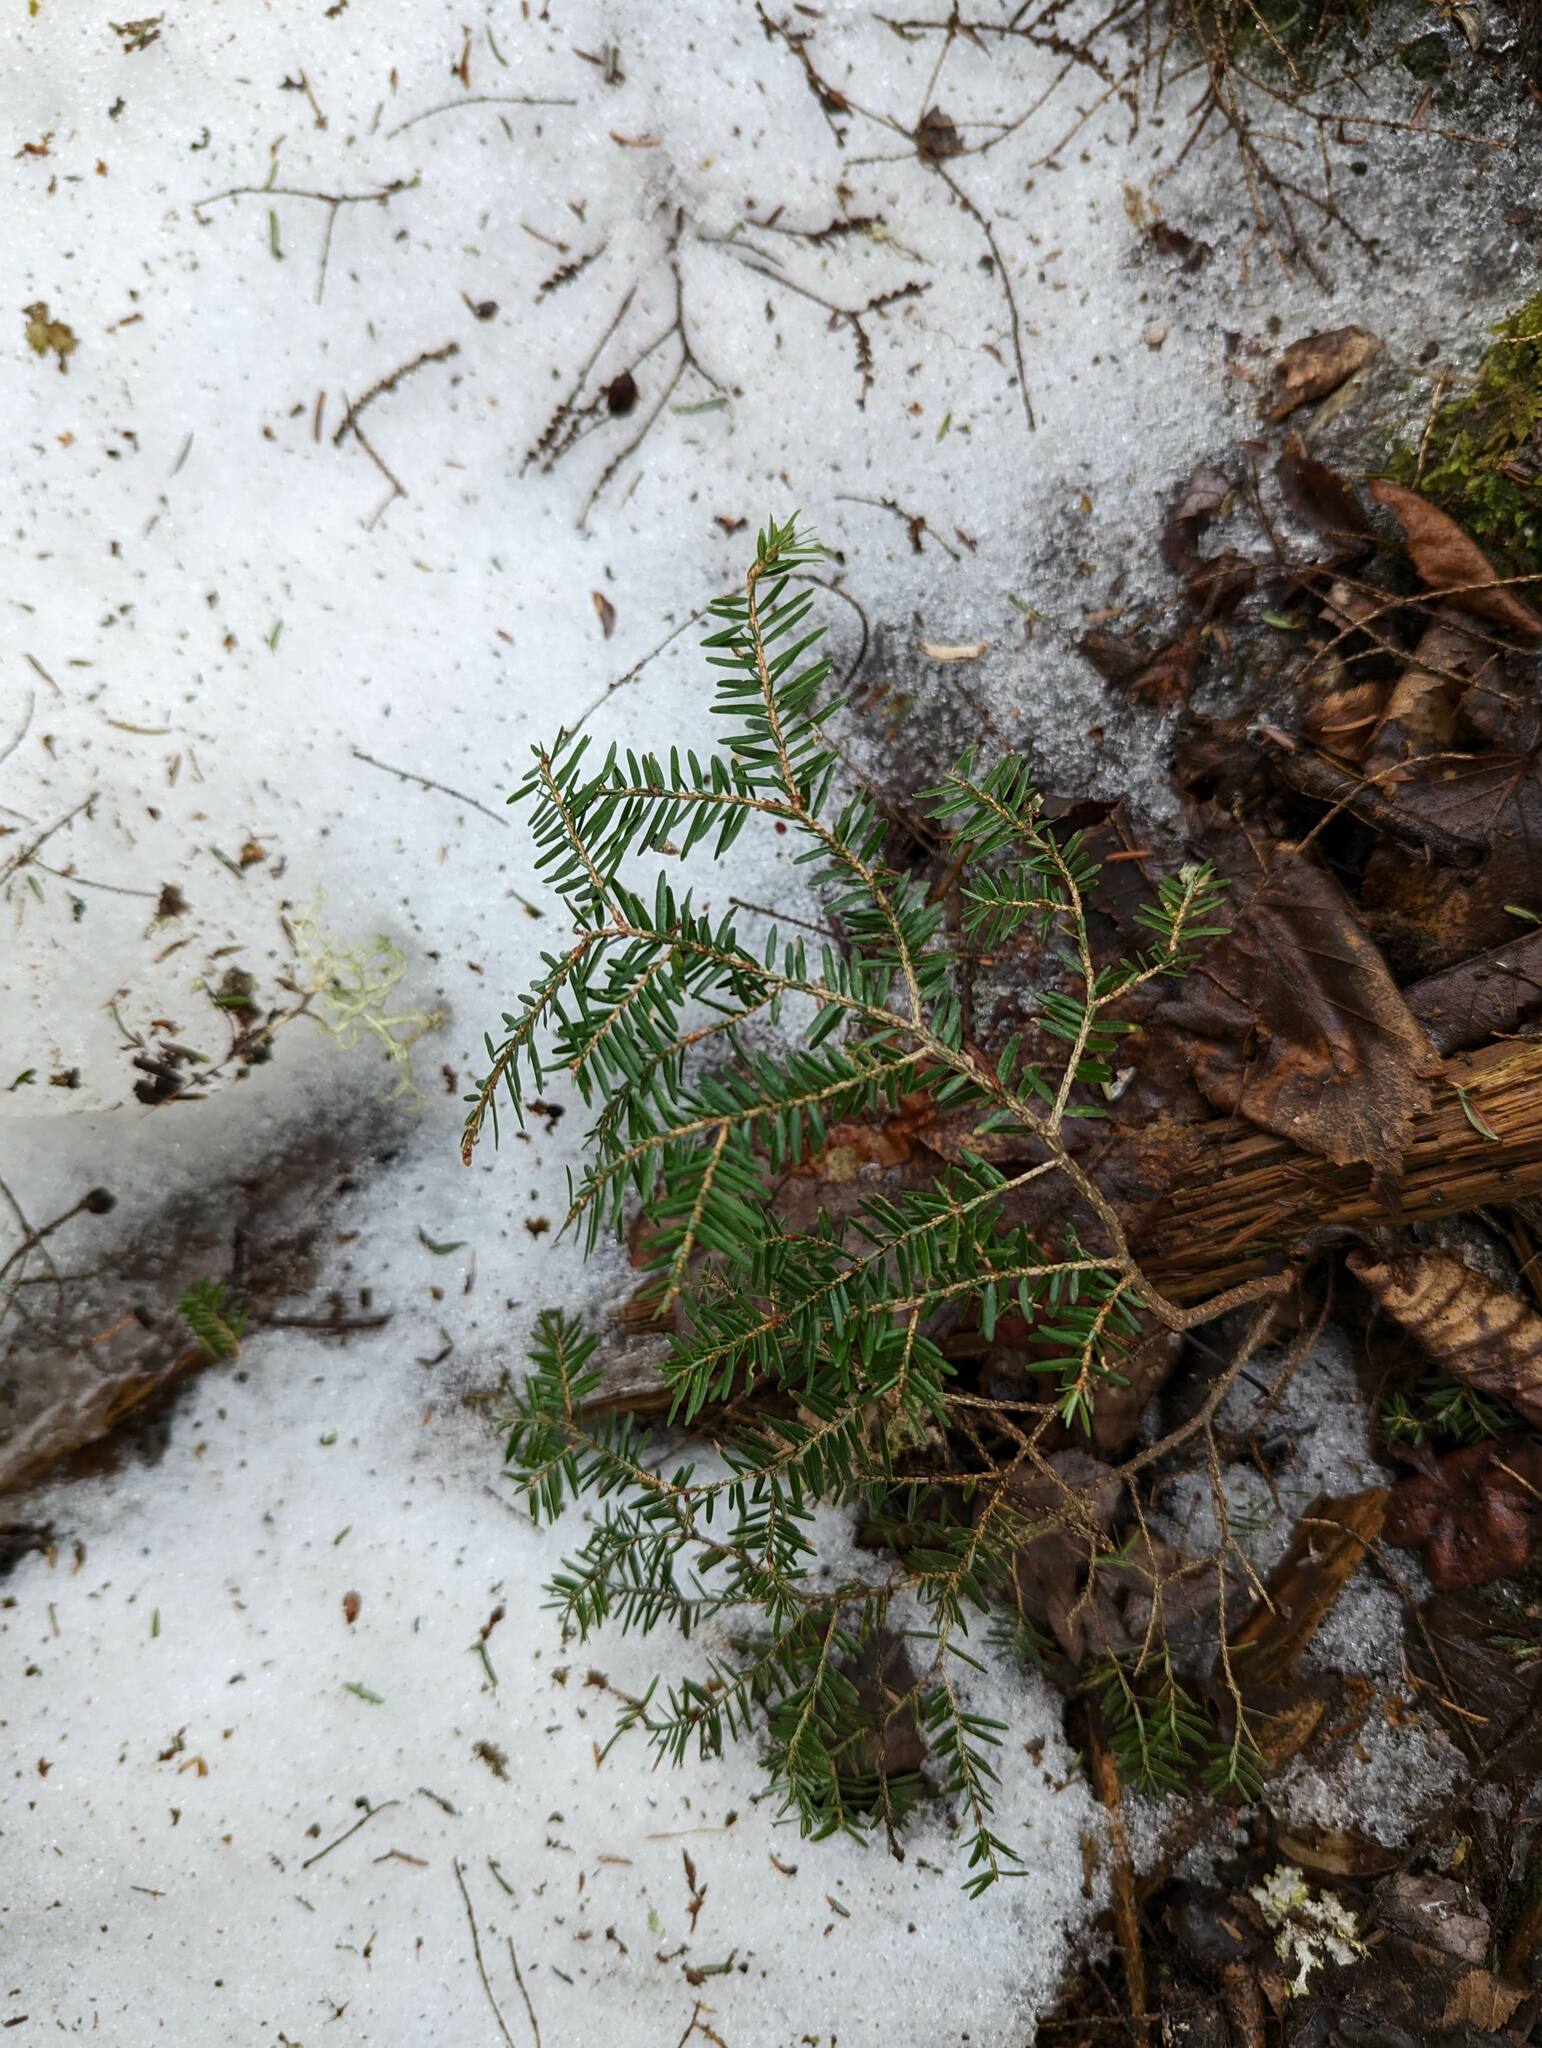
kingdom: Plantae
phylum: Tracheophyta
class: Pinopsida
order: Pinales
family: Pinaceae
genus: Tsuga
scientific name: Tsuga canadensis
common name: Eastern hemlock
